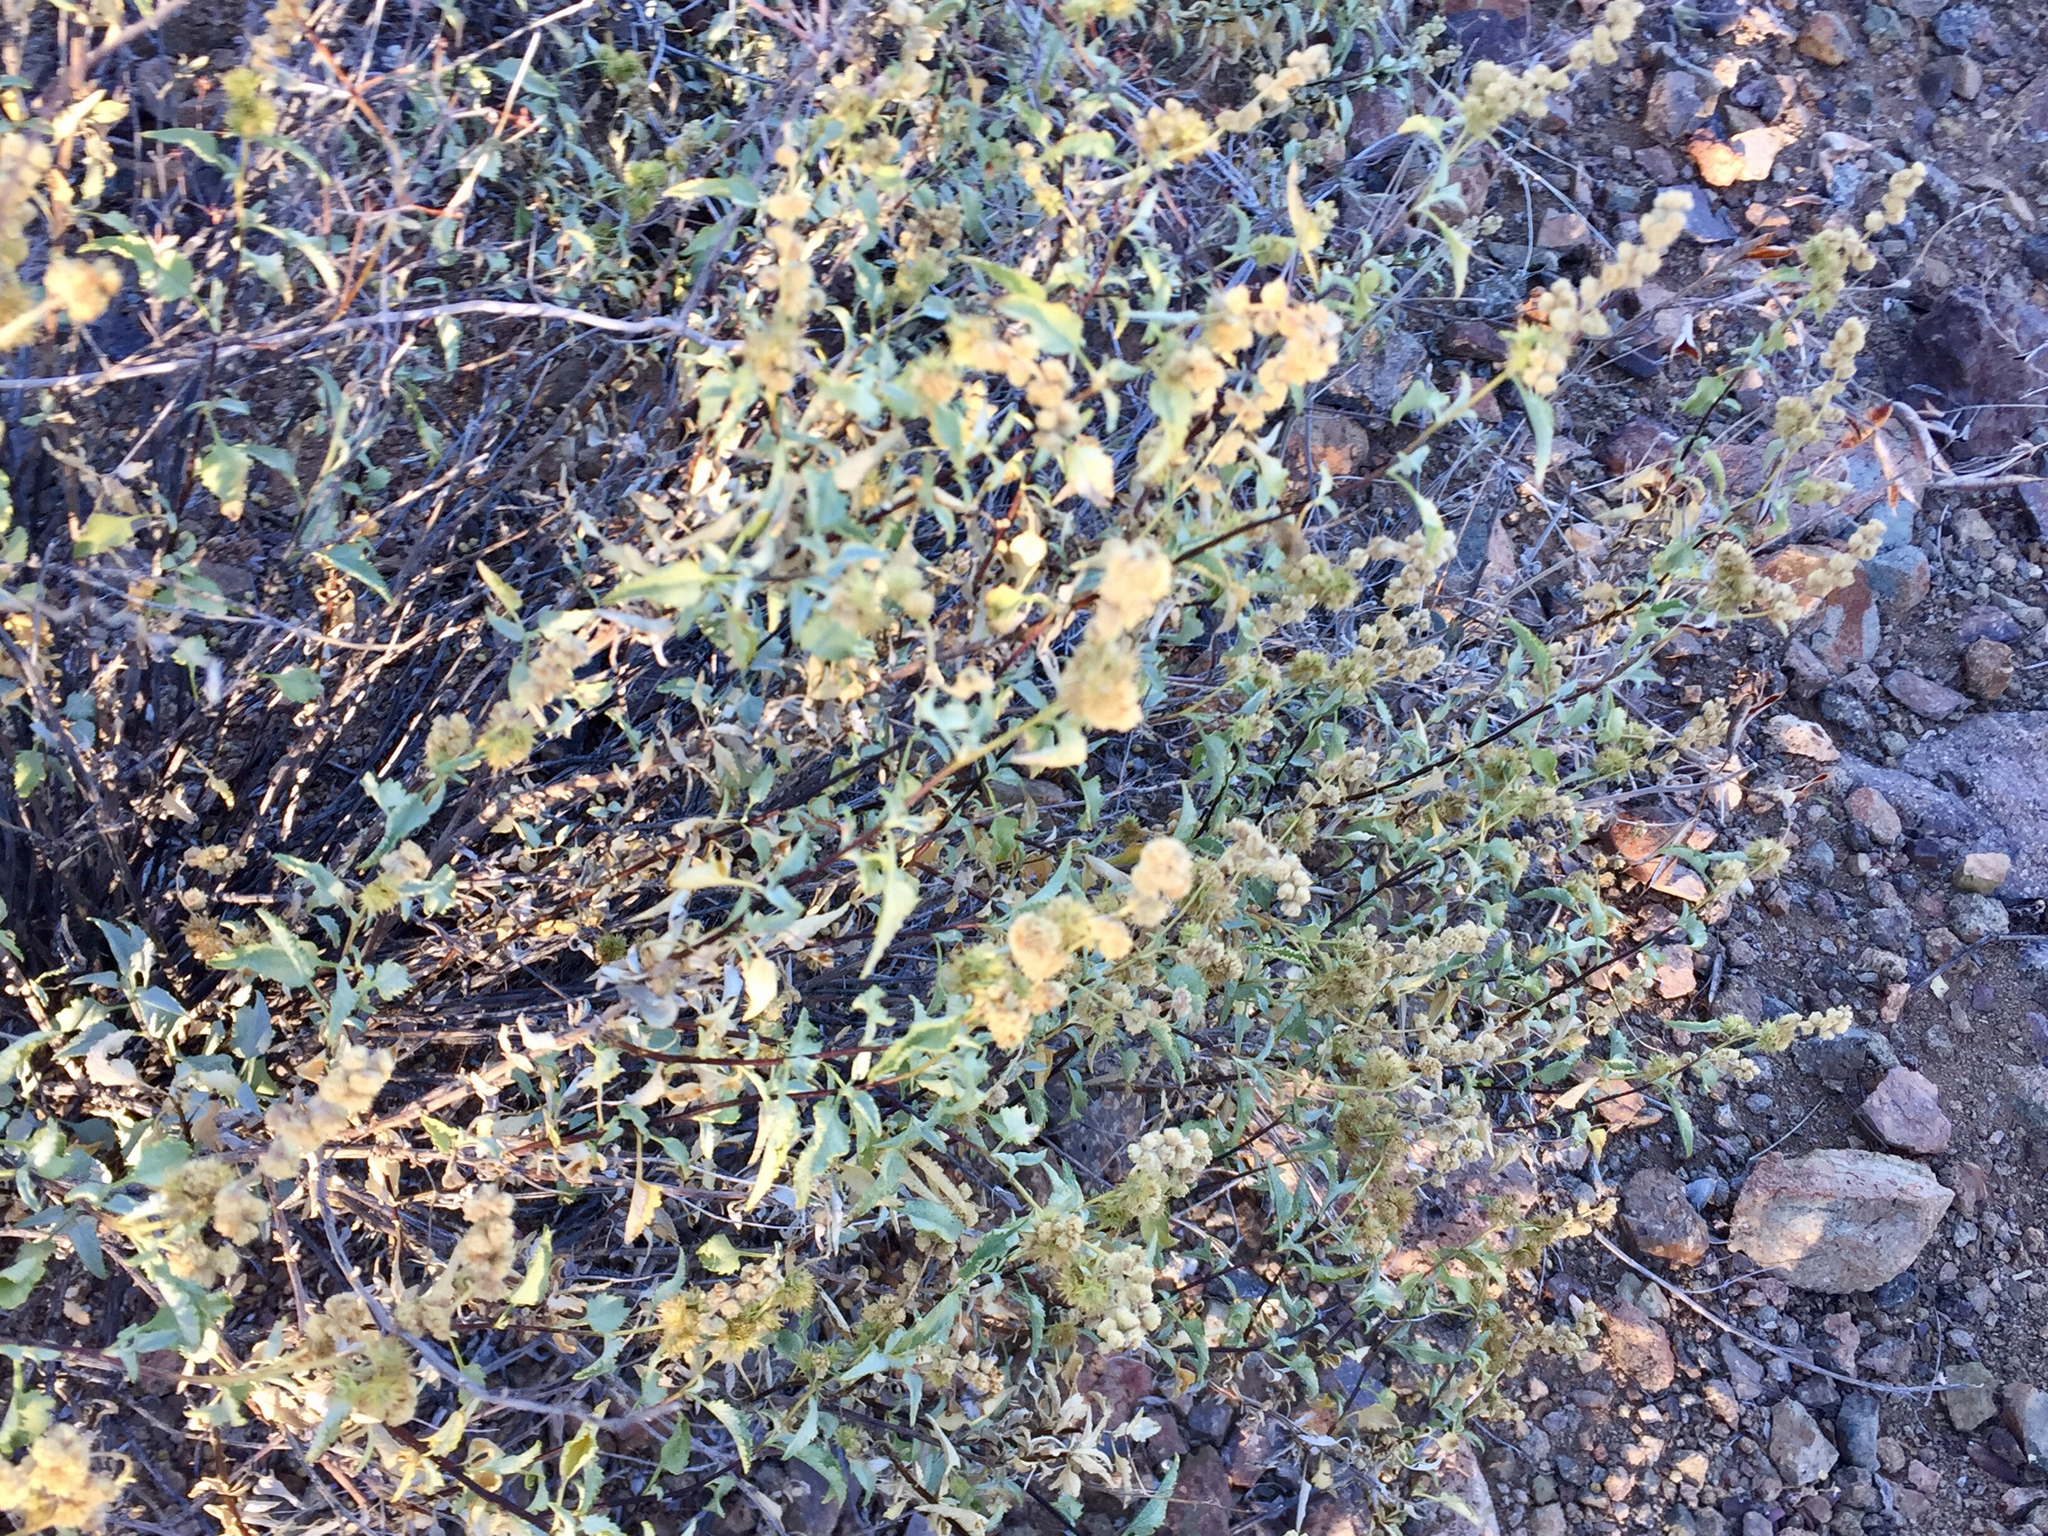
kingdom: Plantae
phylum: Tracheophyta
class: Magnoliopsida
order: Asterales
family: Asteraceae
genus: Ambrosia
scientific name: Ambrosia deltoidea
